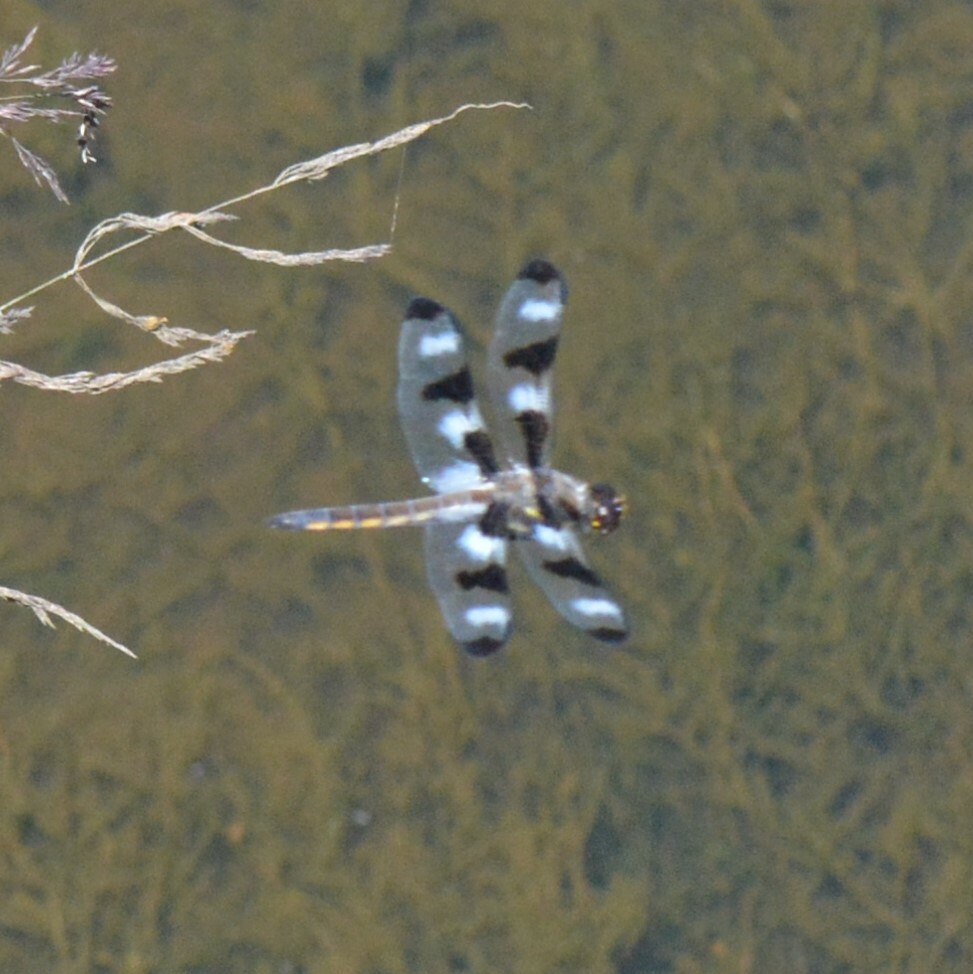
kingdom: Animalia
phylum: Arthropoda
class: Insecta
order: Odonata
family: Libellulidae
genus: Libellula
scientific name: Libellula pulchella
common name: Twelve-spotted skimmer
